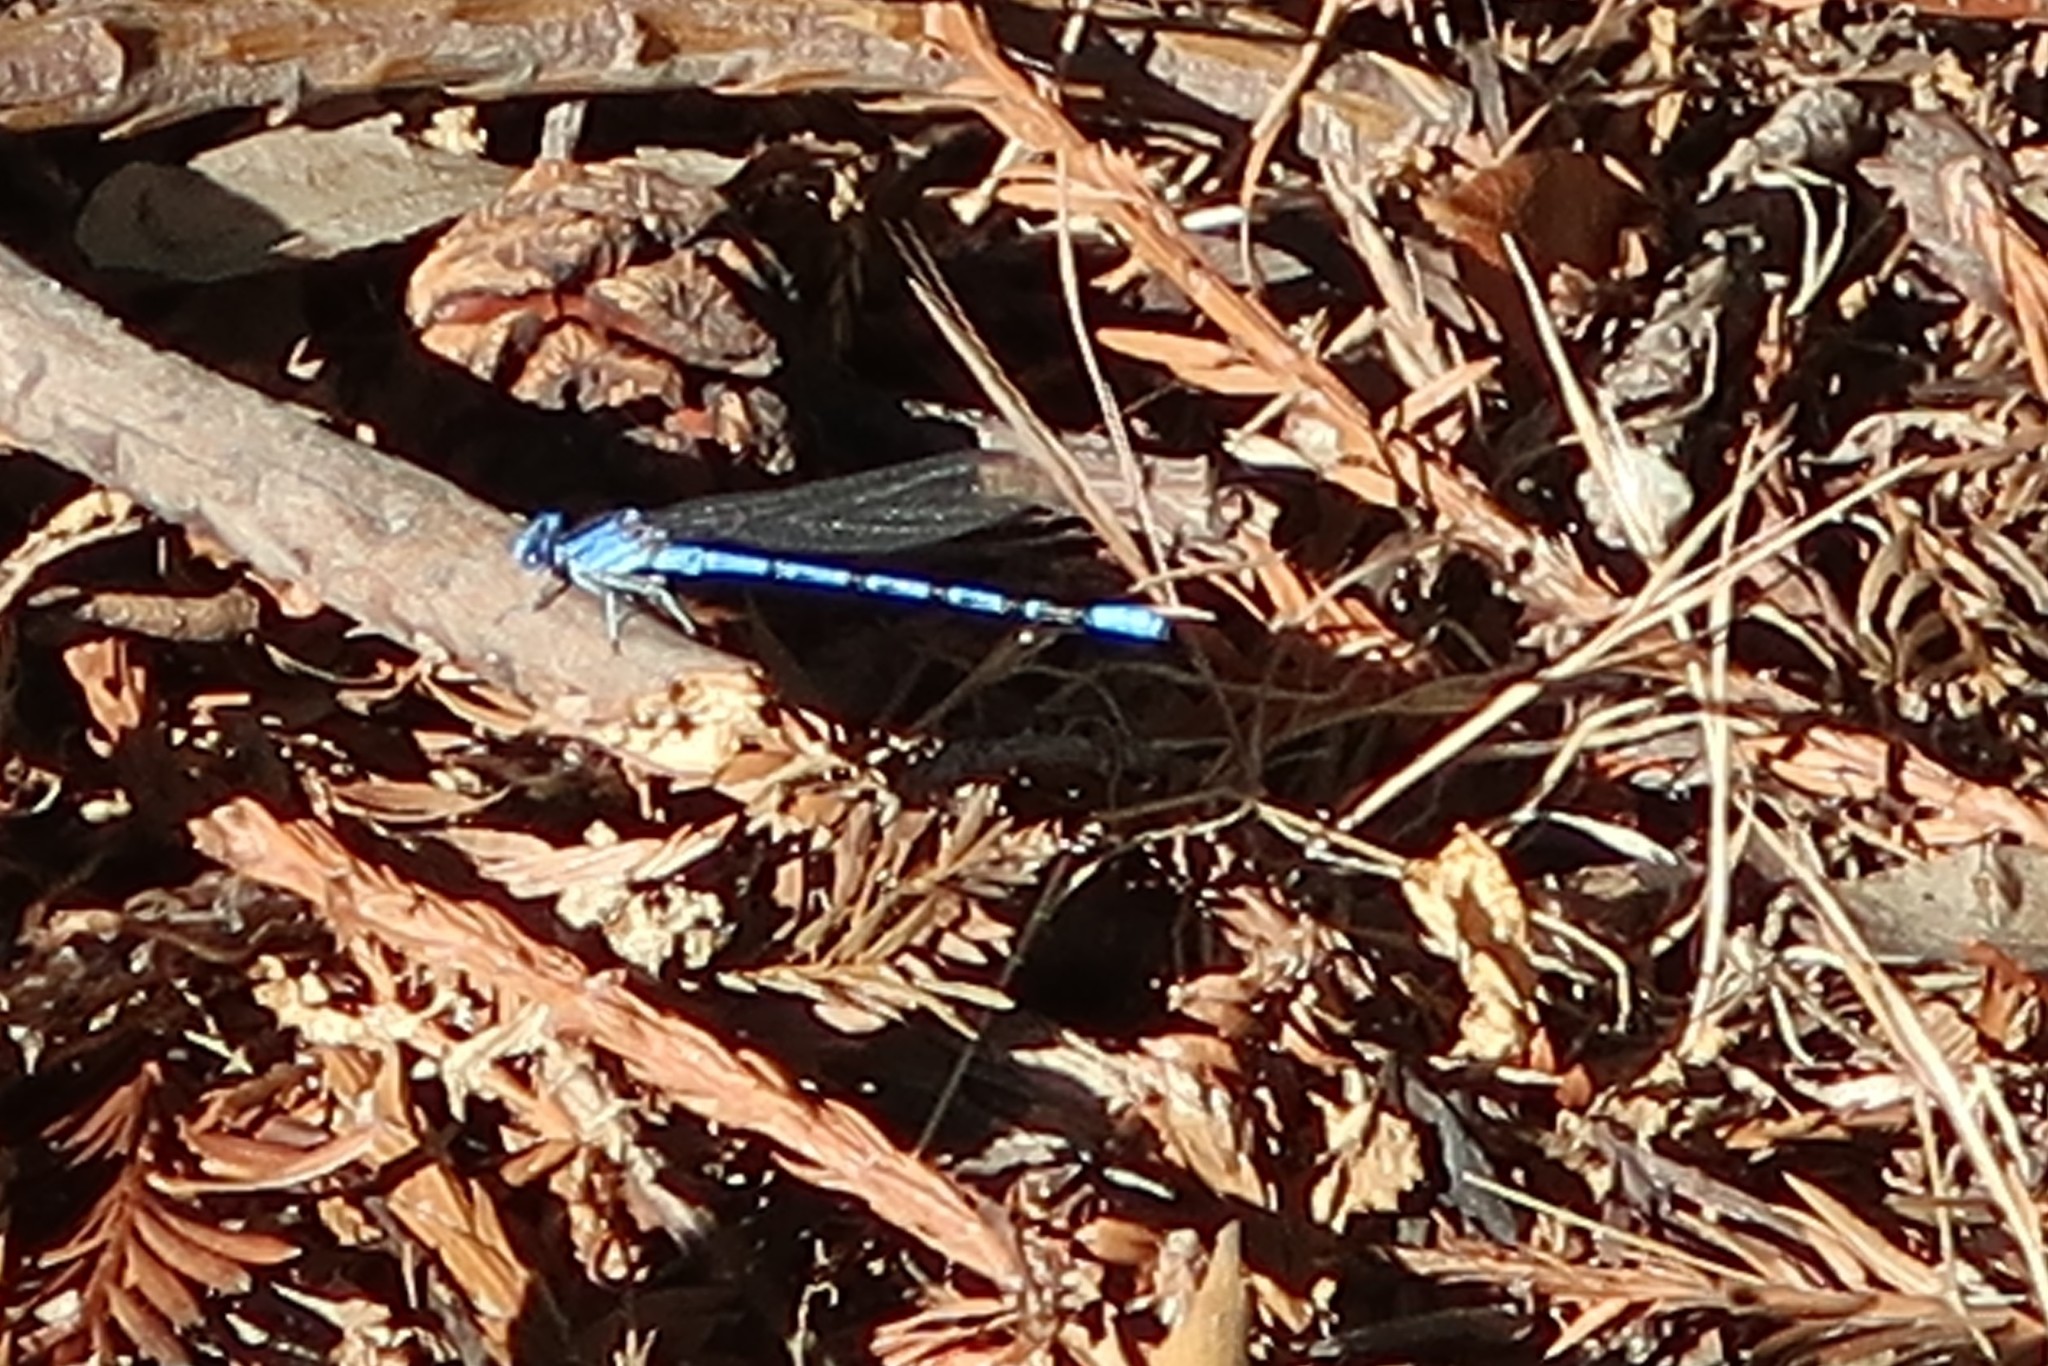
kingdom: Animalia
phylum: Arthropoda
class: Insecta
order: Odonata
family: Coenagrionidae
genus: Argia
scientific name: Argia vivida
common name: Vivid dancer
